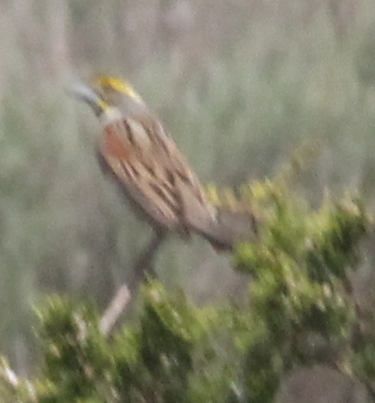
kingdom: Animalia
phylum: Chordata
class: Aves
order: Passeriformes
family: Cardinalidae
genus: Spiza
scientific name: Spiza americana
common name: Dickcissel
